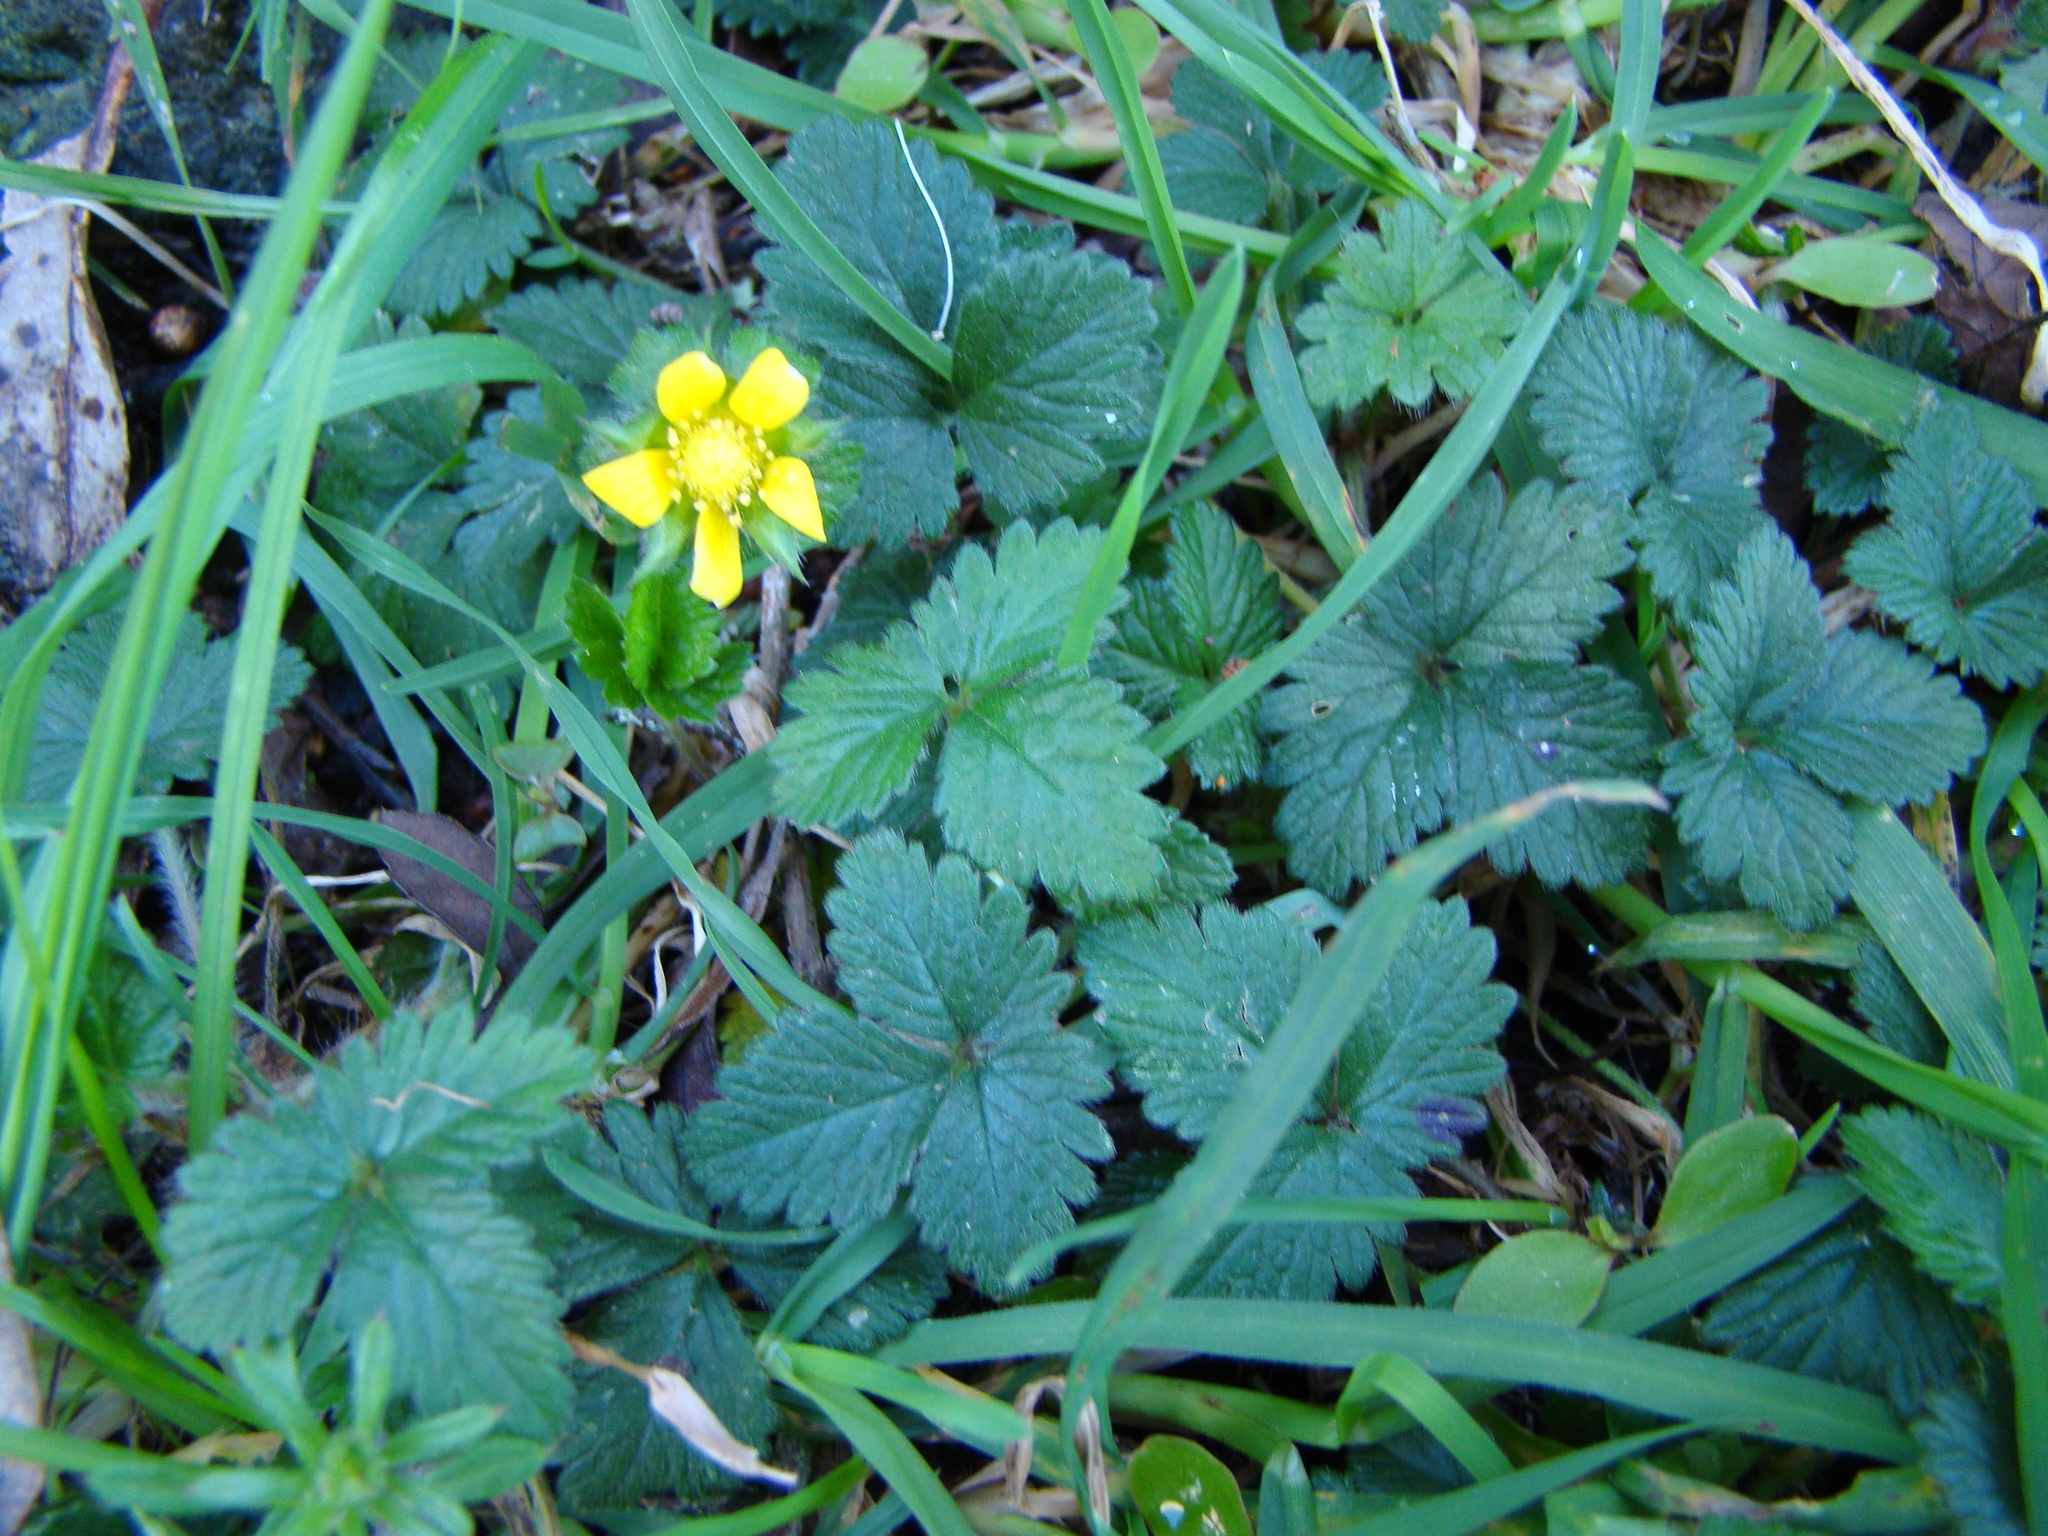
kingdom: Plantae
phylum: Tracheophyta
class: Magnoliopsida
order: Rosales
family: Rosaceae
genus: Potentilla
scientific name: Potentilla indica
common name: Yellow-flowered strawberry
